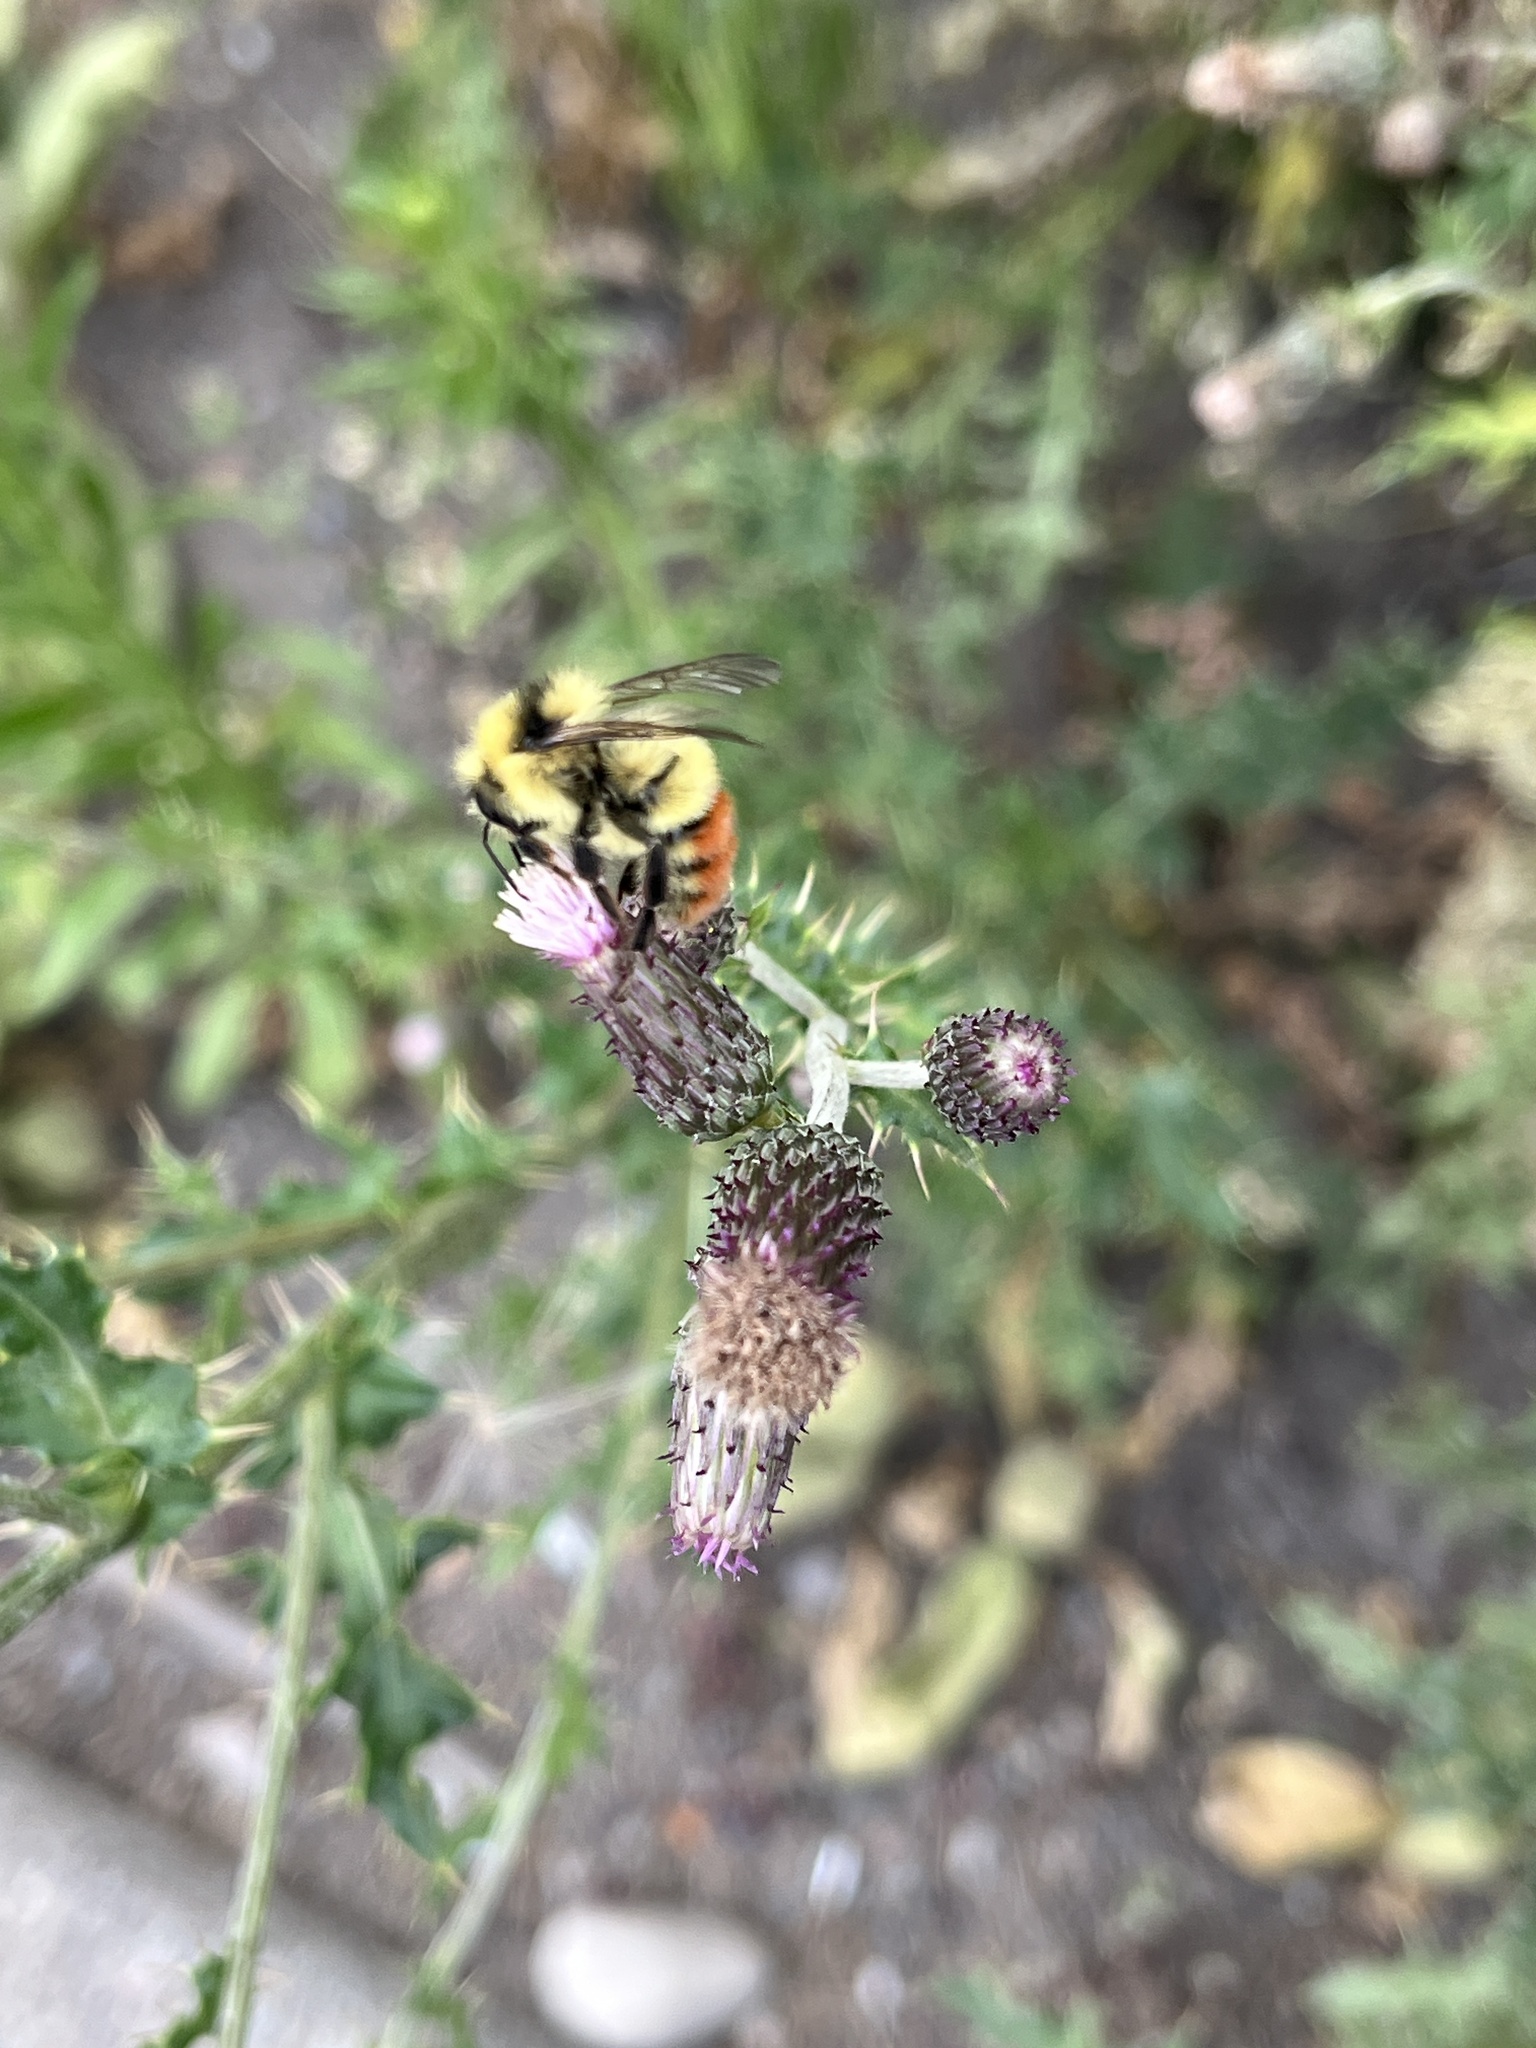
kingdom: Animalia
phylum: Arthropoda
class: Insecta
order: Hymenoptera
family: Apidae
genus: Bombus
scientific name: Bombus centralis
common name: Central bumble bee
